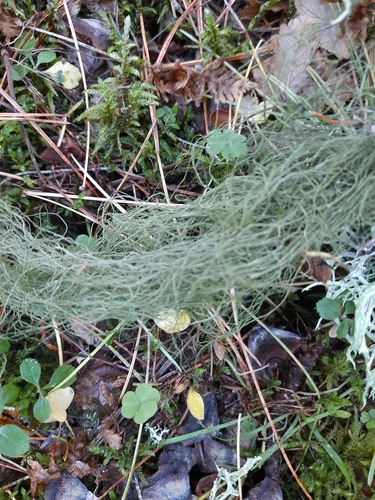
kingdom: Fungi
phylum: Ascomycota
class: Lecanoromycetes
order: Lecanorales
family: Parmeliaceae
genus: Usnea
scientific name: Usnea
